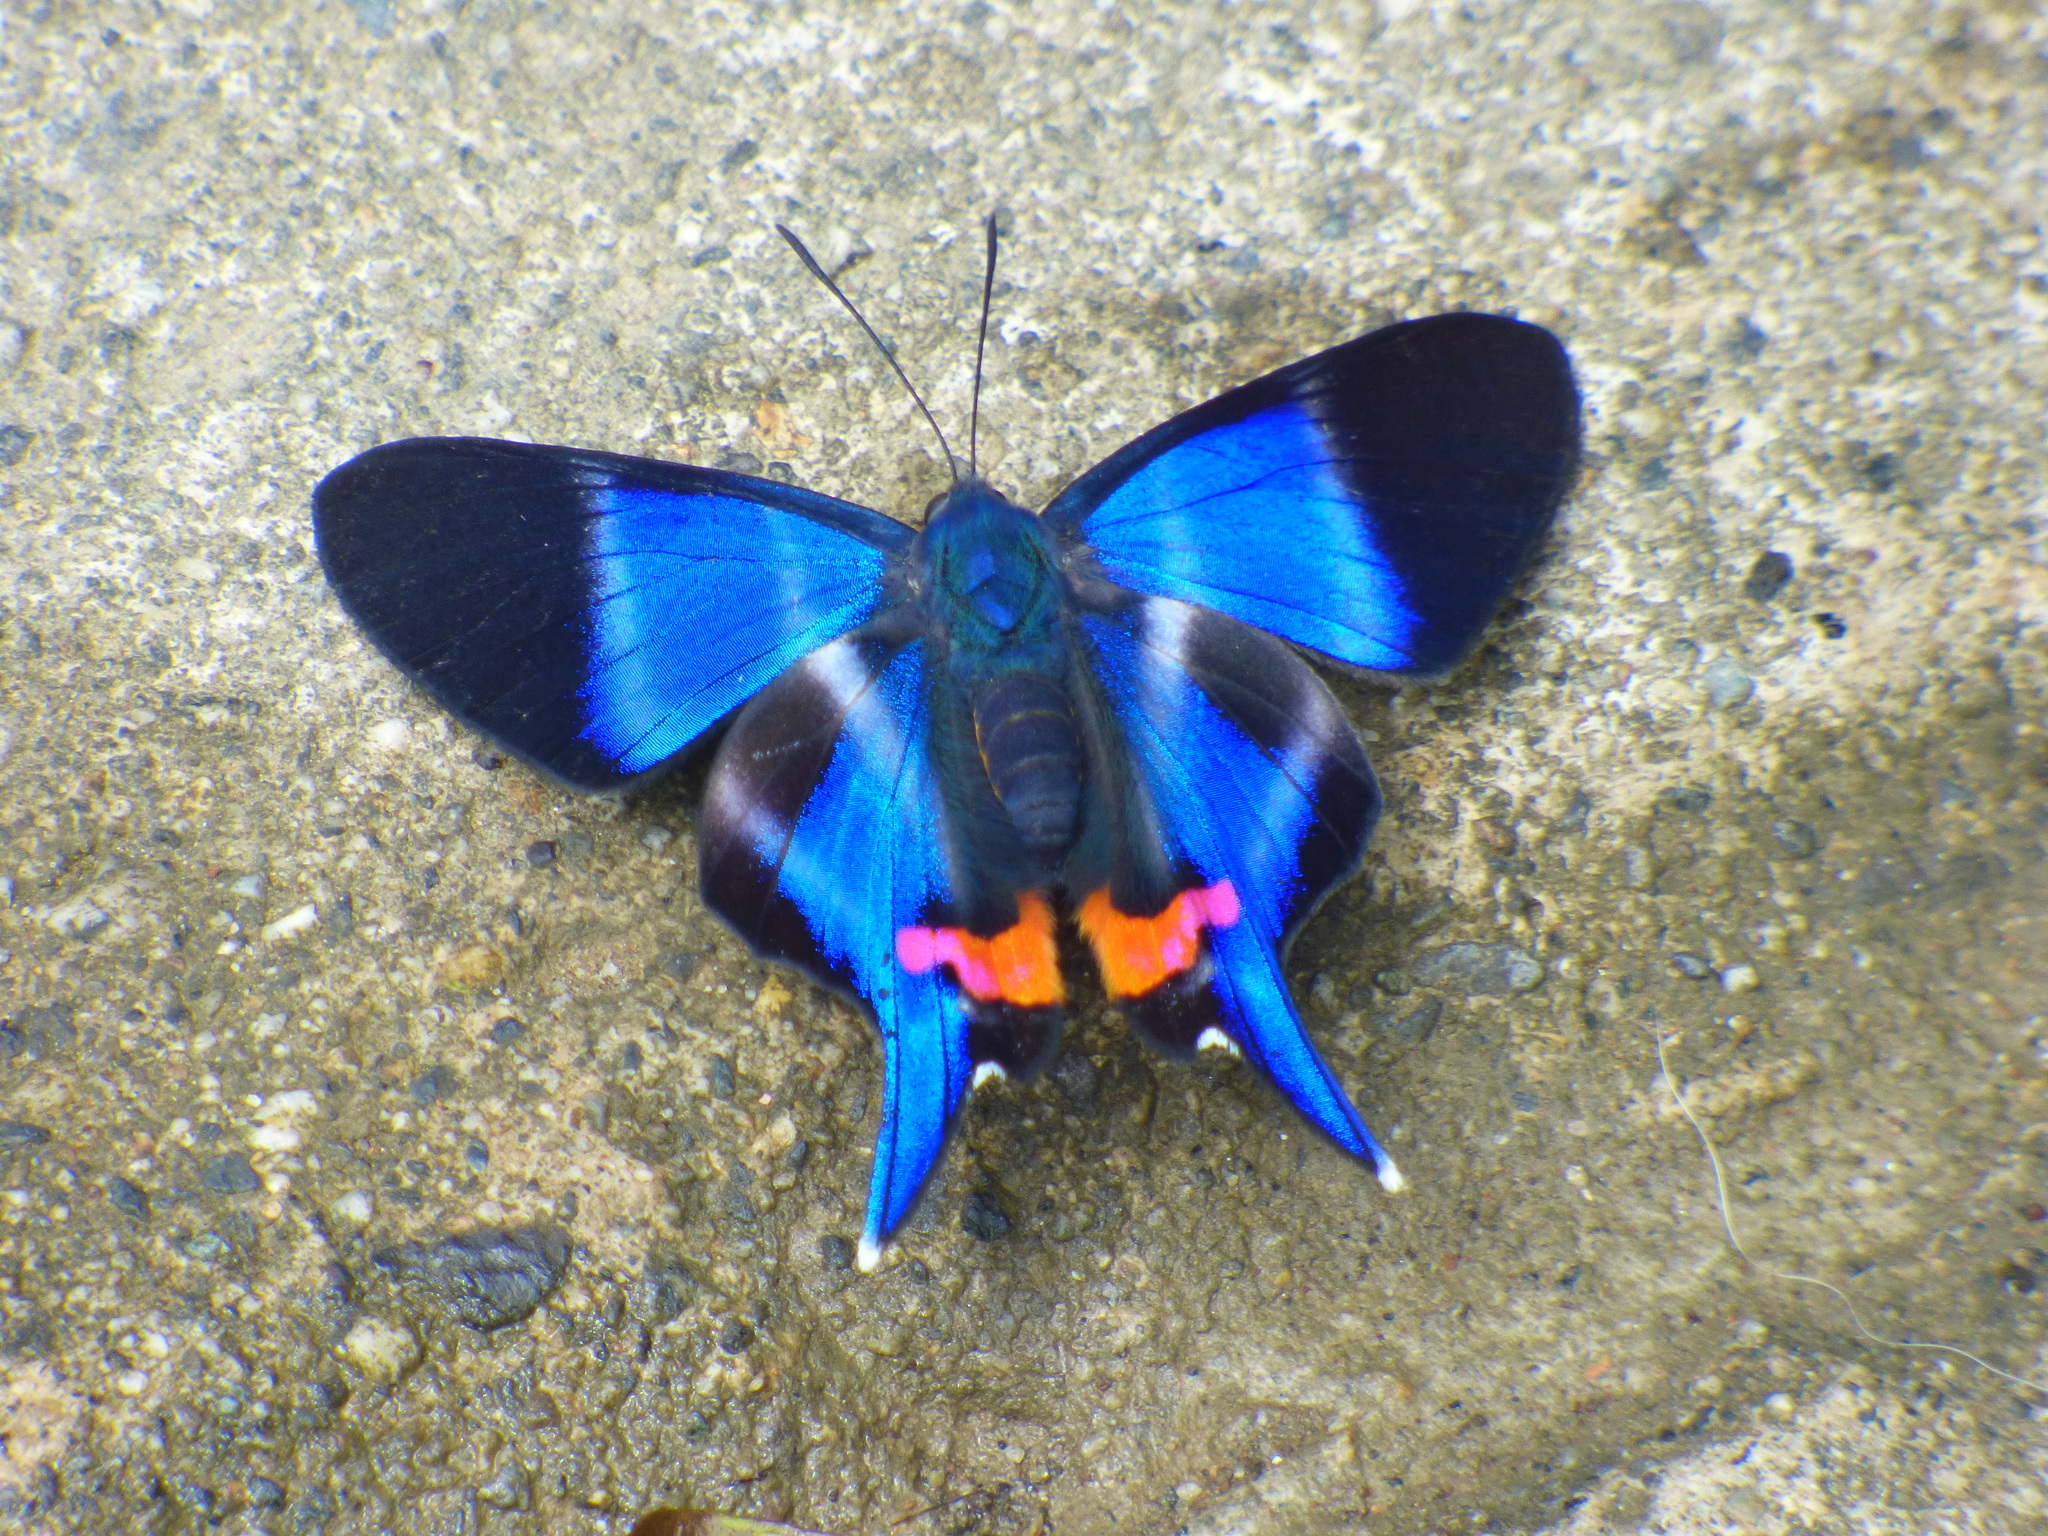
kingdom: Animalia
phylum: Arthropoda
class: Insecta
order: Lepidoptera
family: Riodinidae
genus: Rhetus
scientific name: Rhetus dysonii
